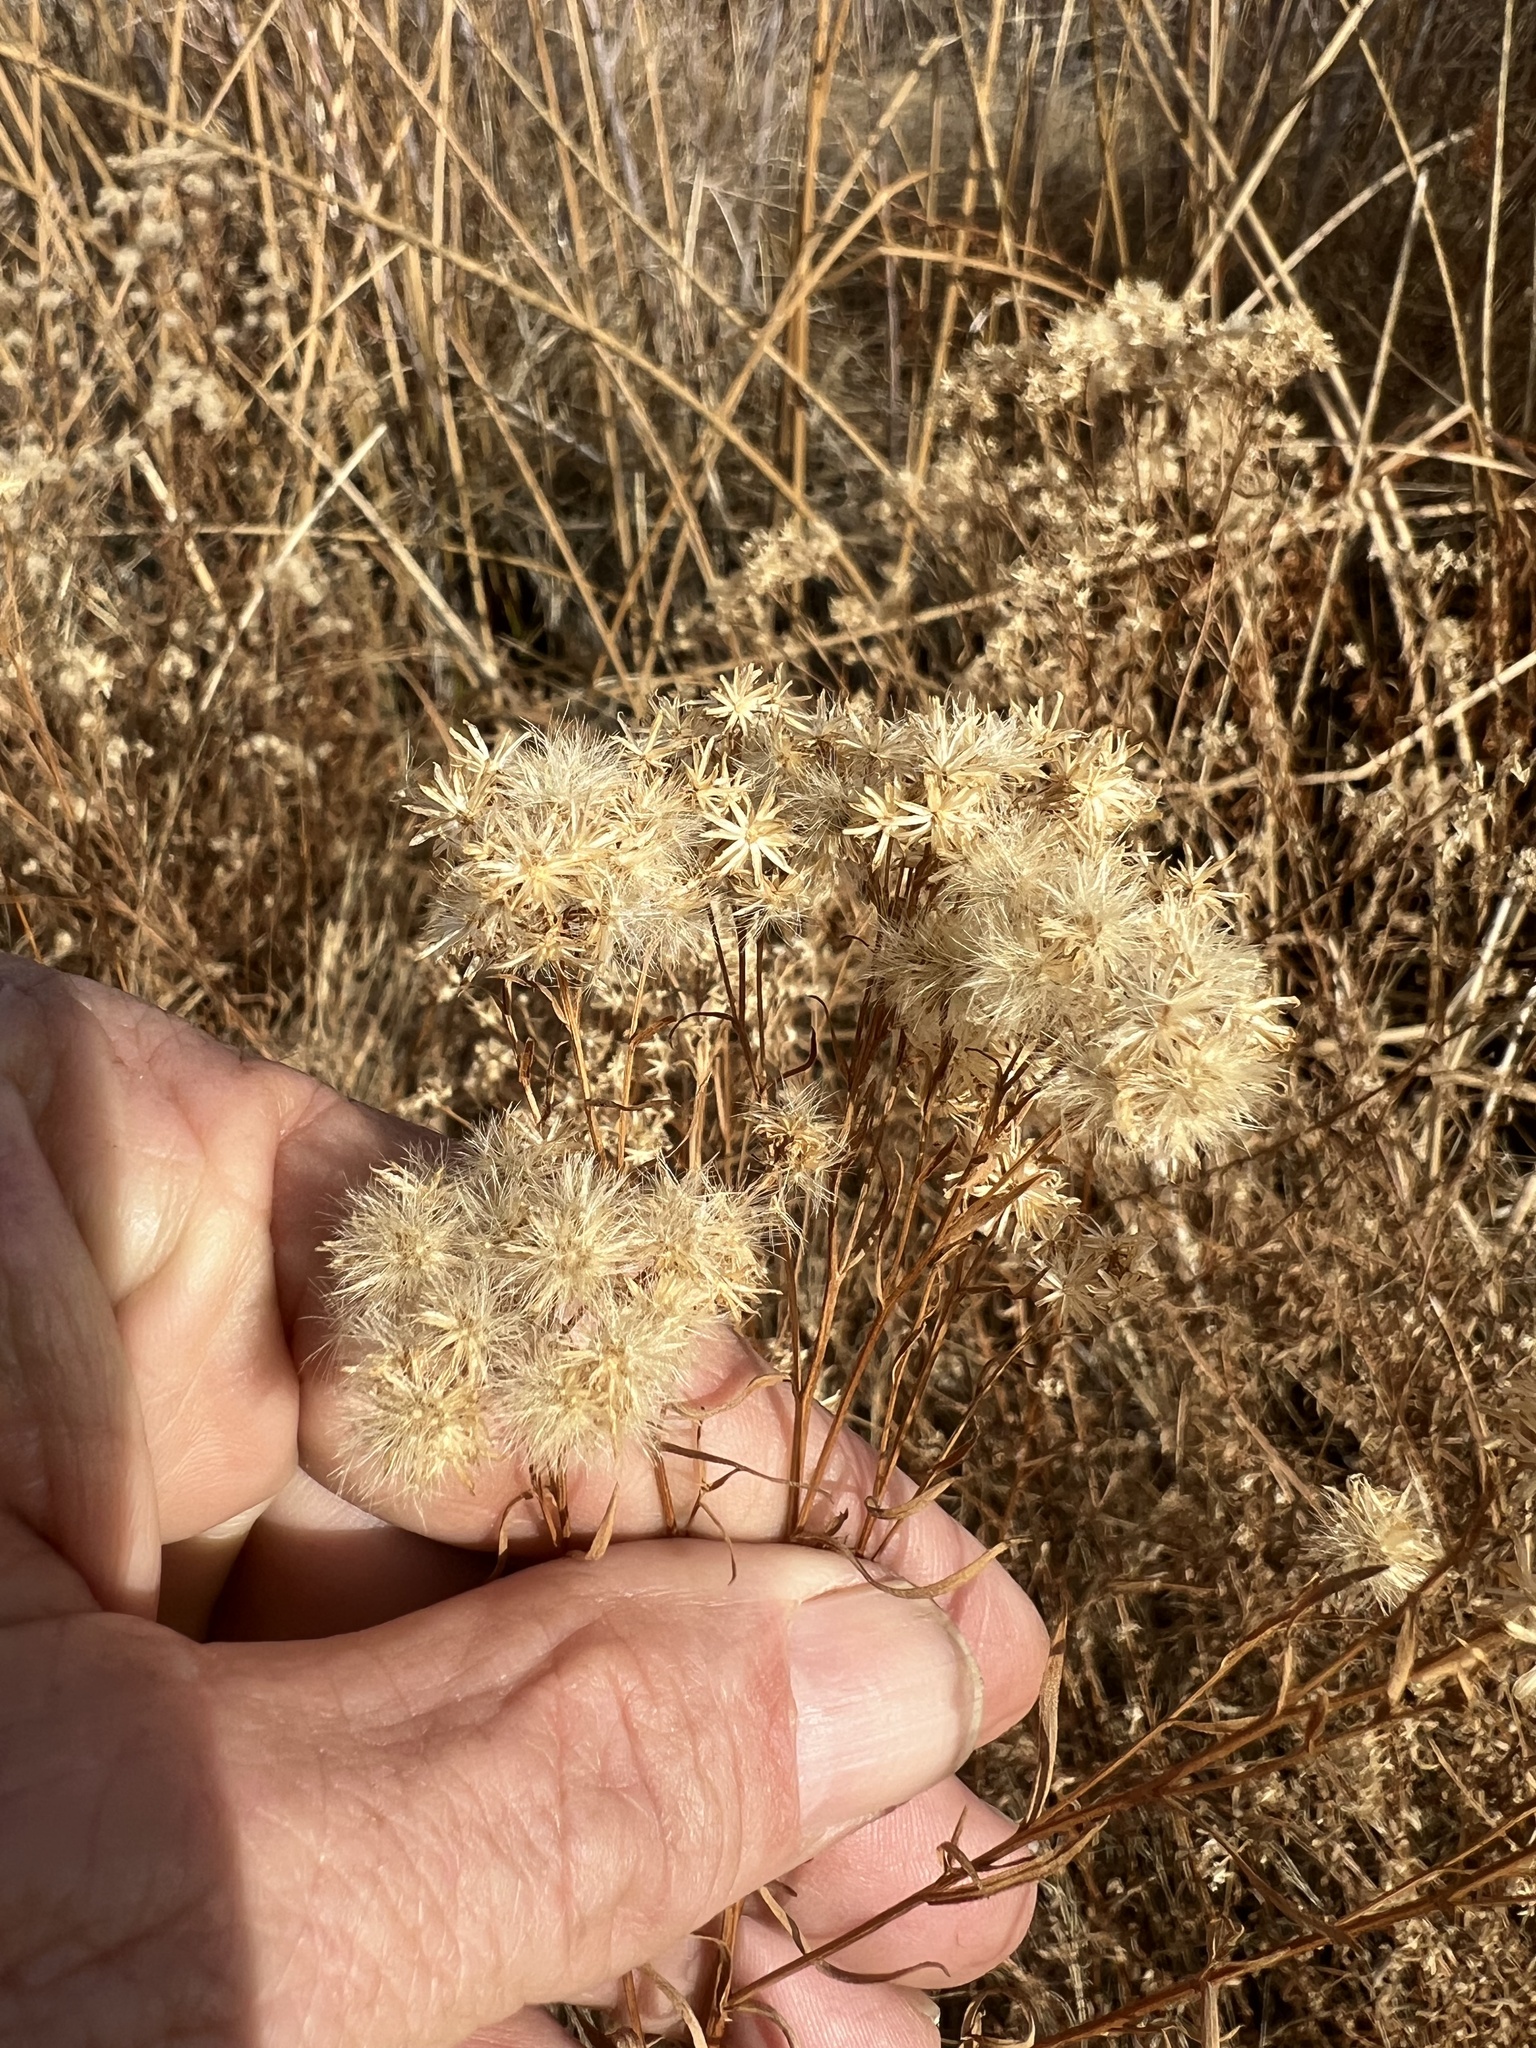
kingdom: Plantae
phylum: Tracheophyta
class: Magnoliopsida
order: Asterales
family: Asteraceae
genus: Euthamia
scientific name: Euthamia occidentalis
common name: Western goldentop
